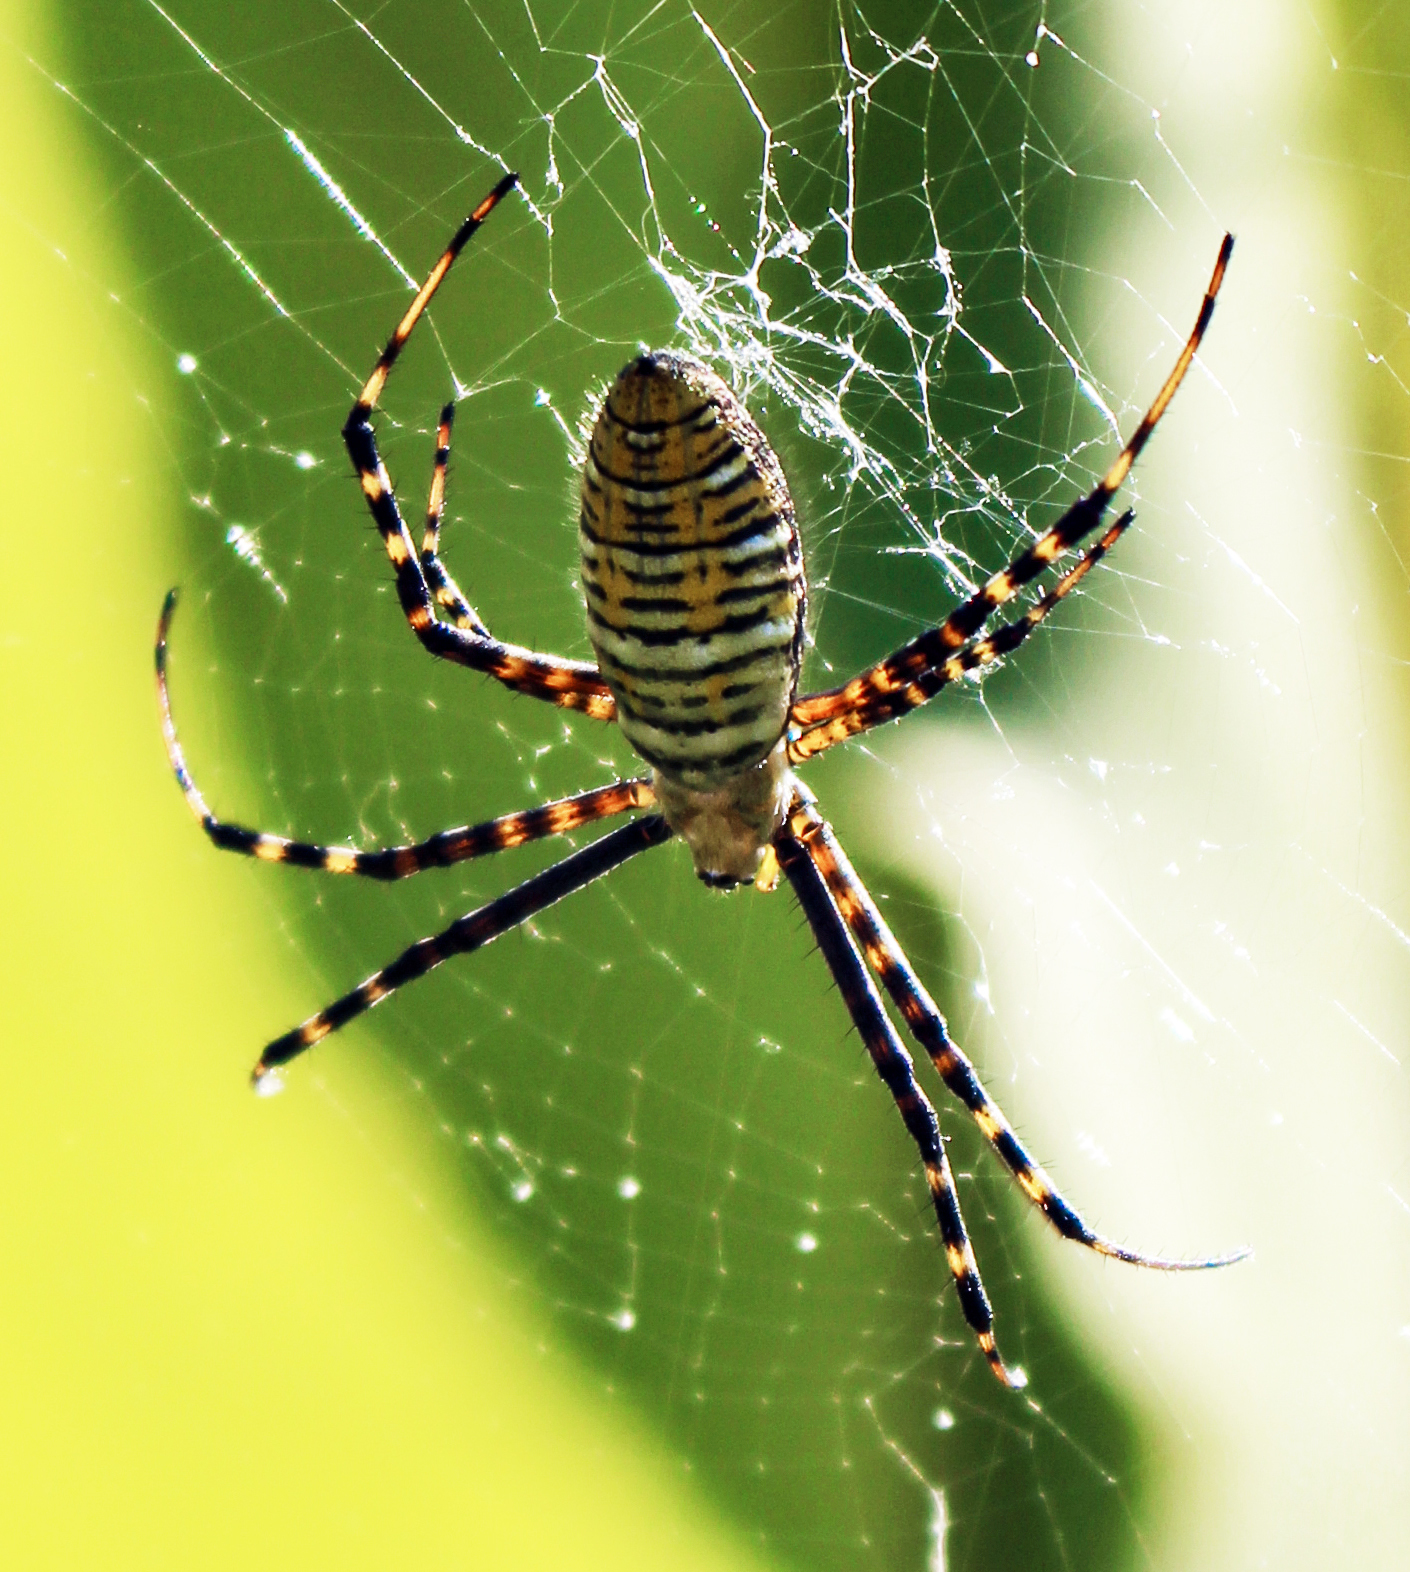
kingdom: Animalia
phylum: Arthropoda
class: Arachnida
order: Araneae
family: Araneidae
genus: Argiope
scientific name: Argiope trifasciata
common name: Banded garden spider
